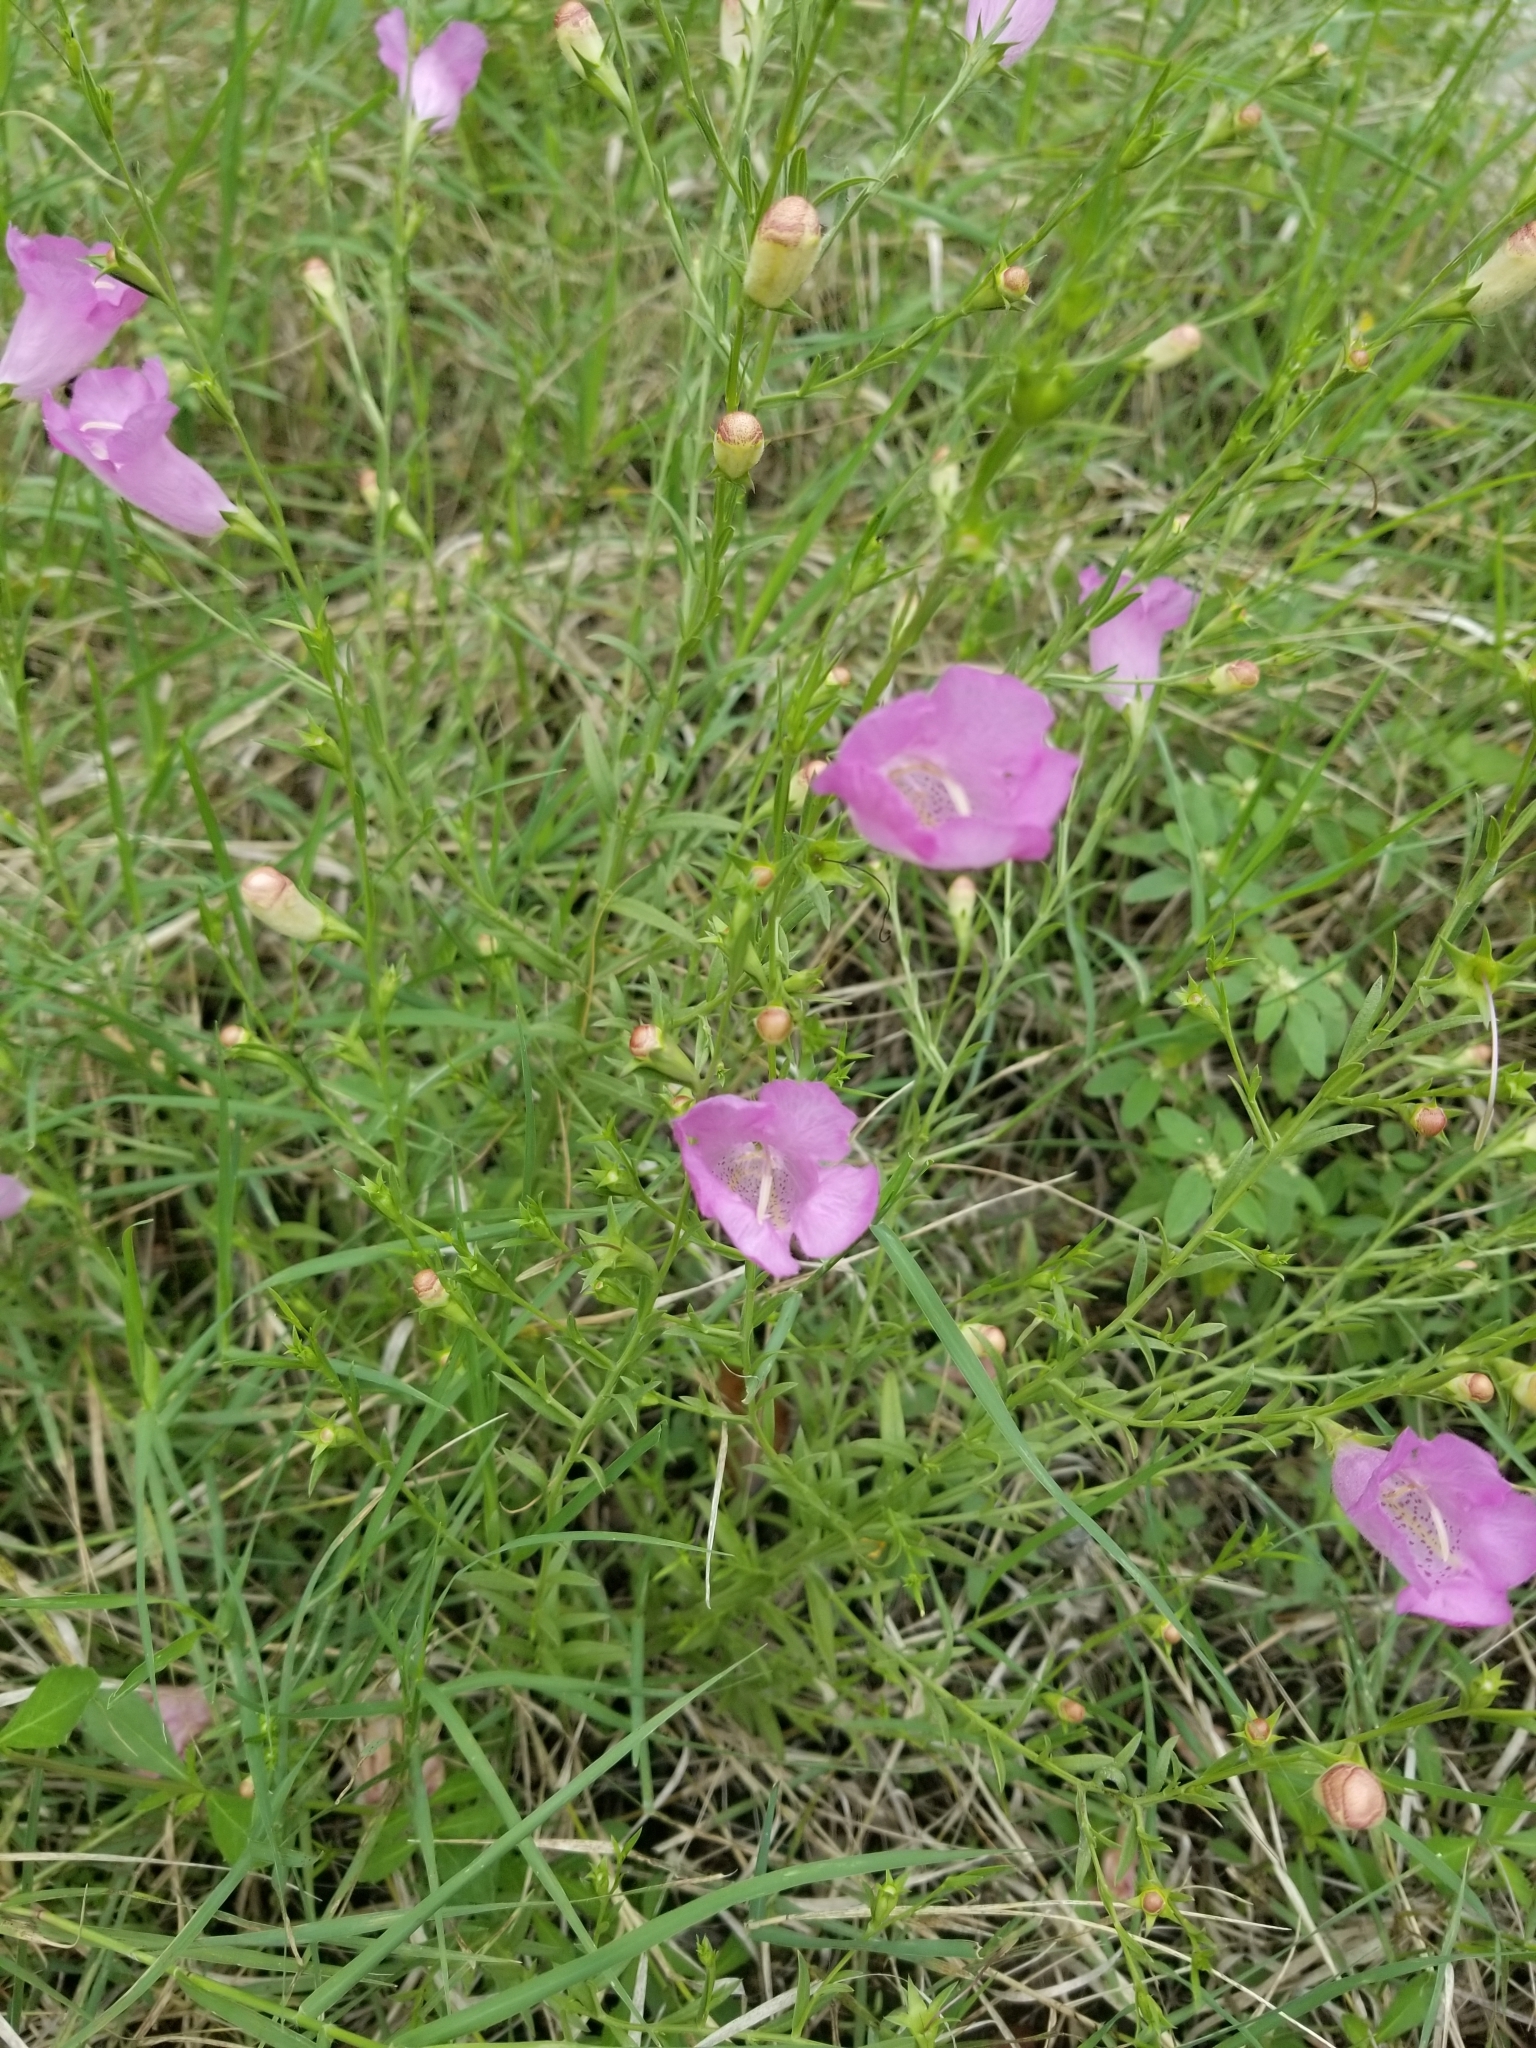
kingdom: Plantae
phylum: Tracheophyta
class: Magnoliopsida
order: Lamiales
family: Orobanchaceae
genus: Agalinis
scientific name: Agalinis heterophylla
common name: Prairie agalinis
